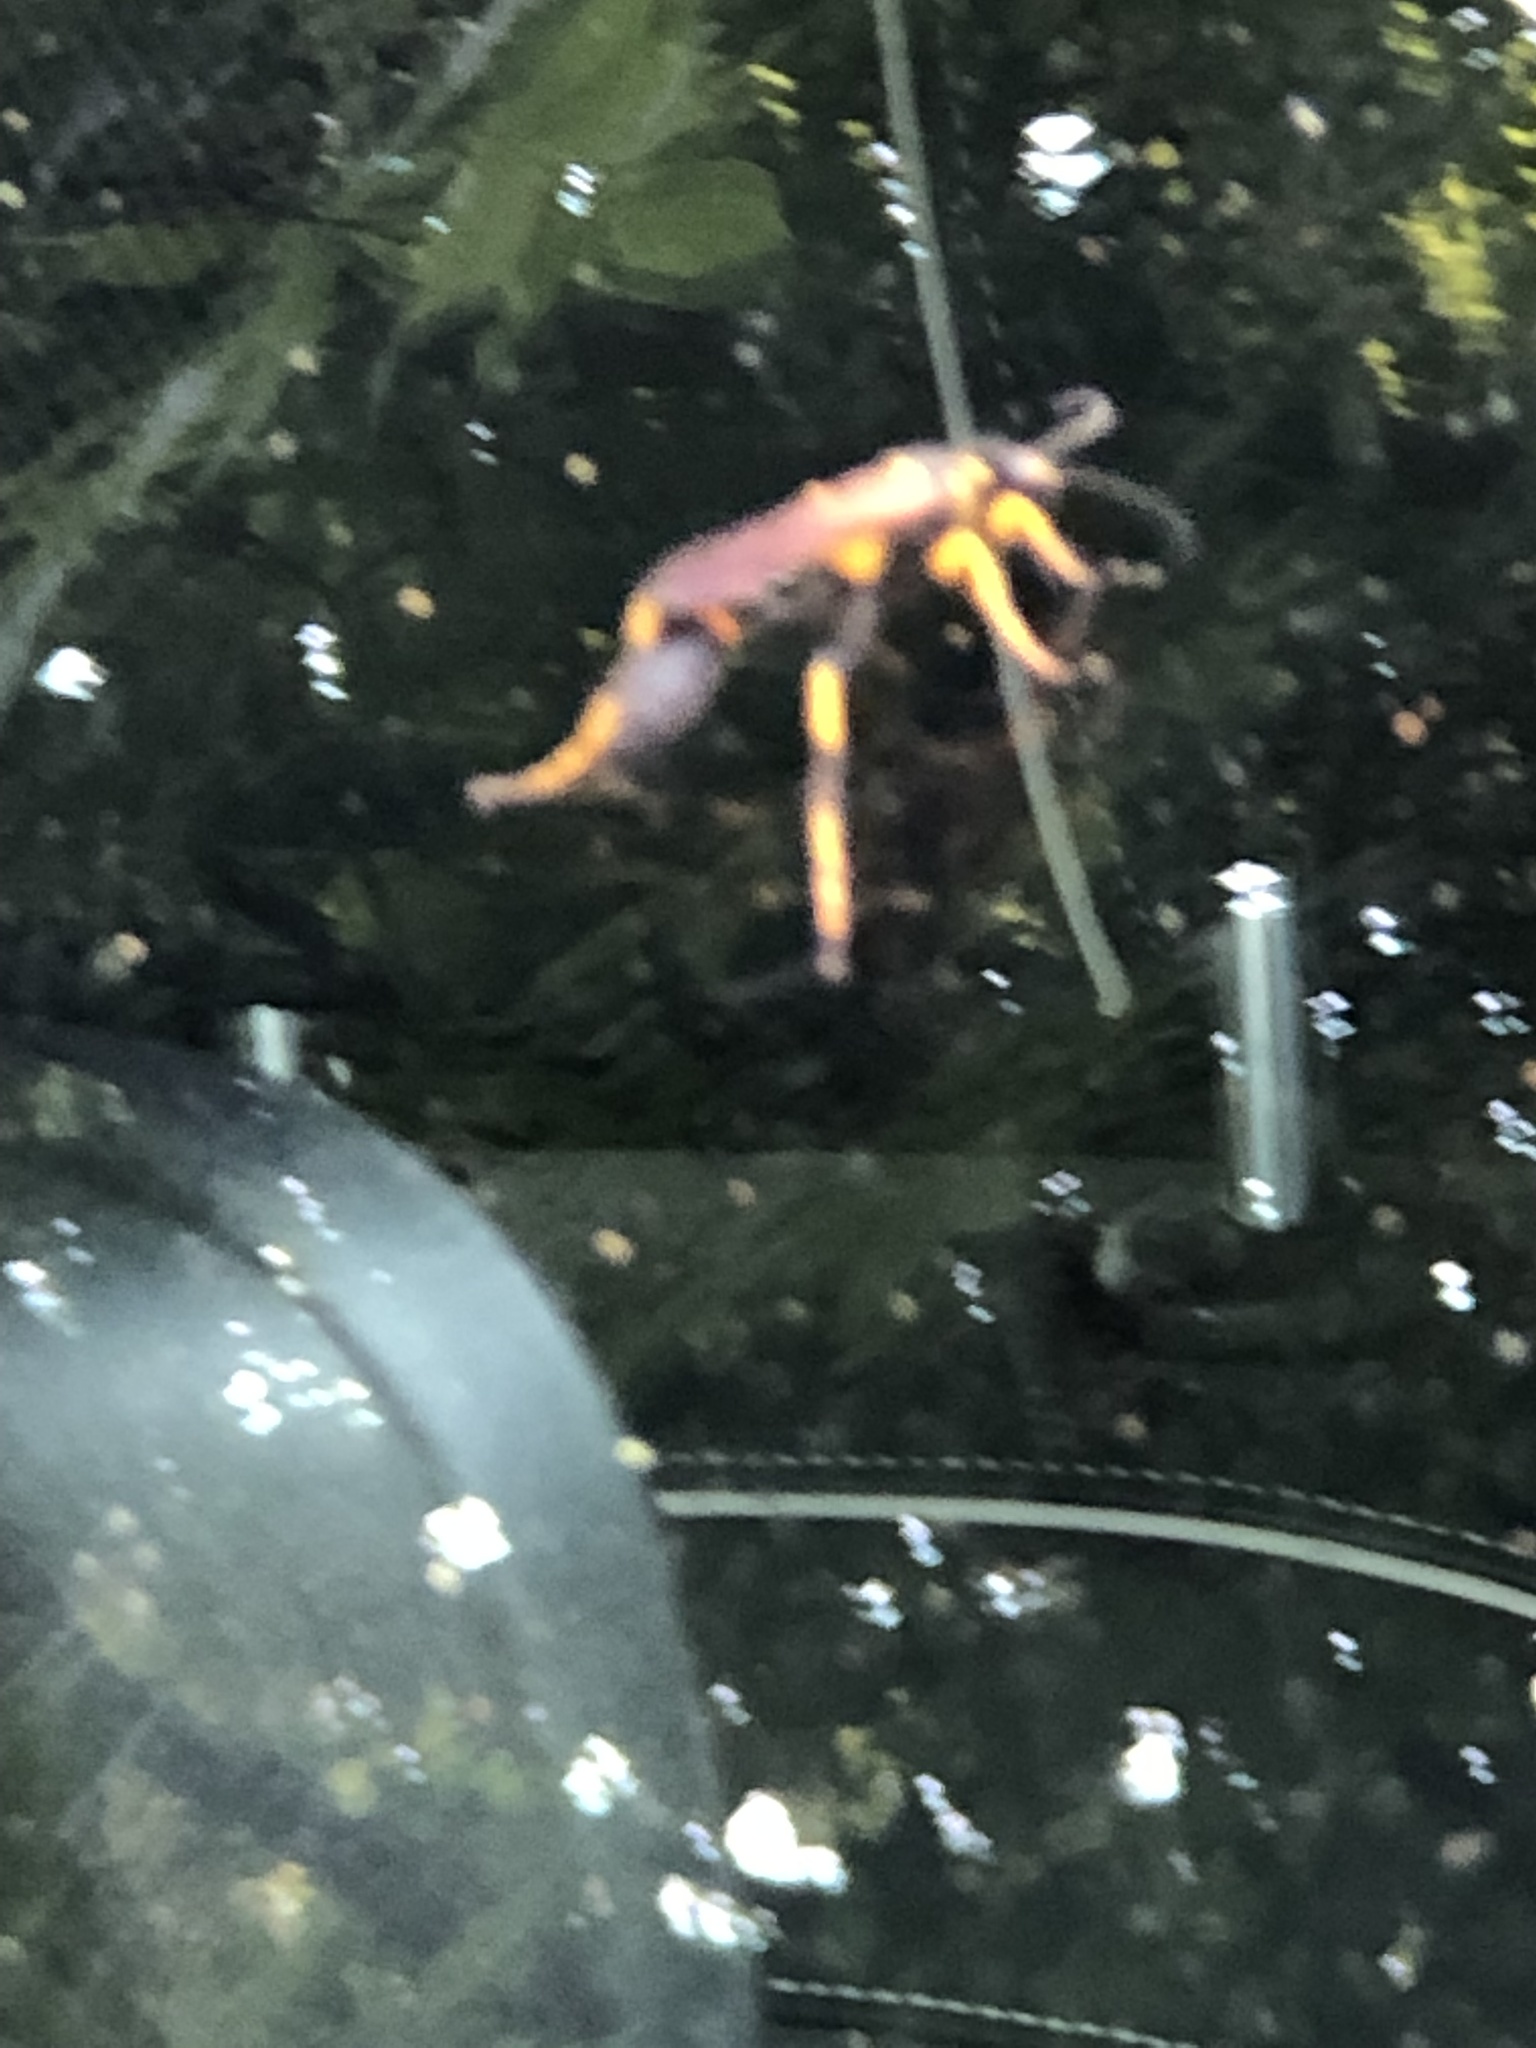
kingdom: Animalia
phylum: Arthropoda
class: Insecta
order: Hymenoptera
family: Sphecidae
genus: Sceliphron
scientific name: Sceliphron caementarium
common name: Mud dauber
